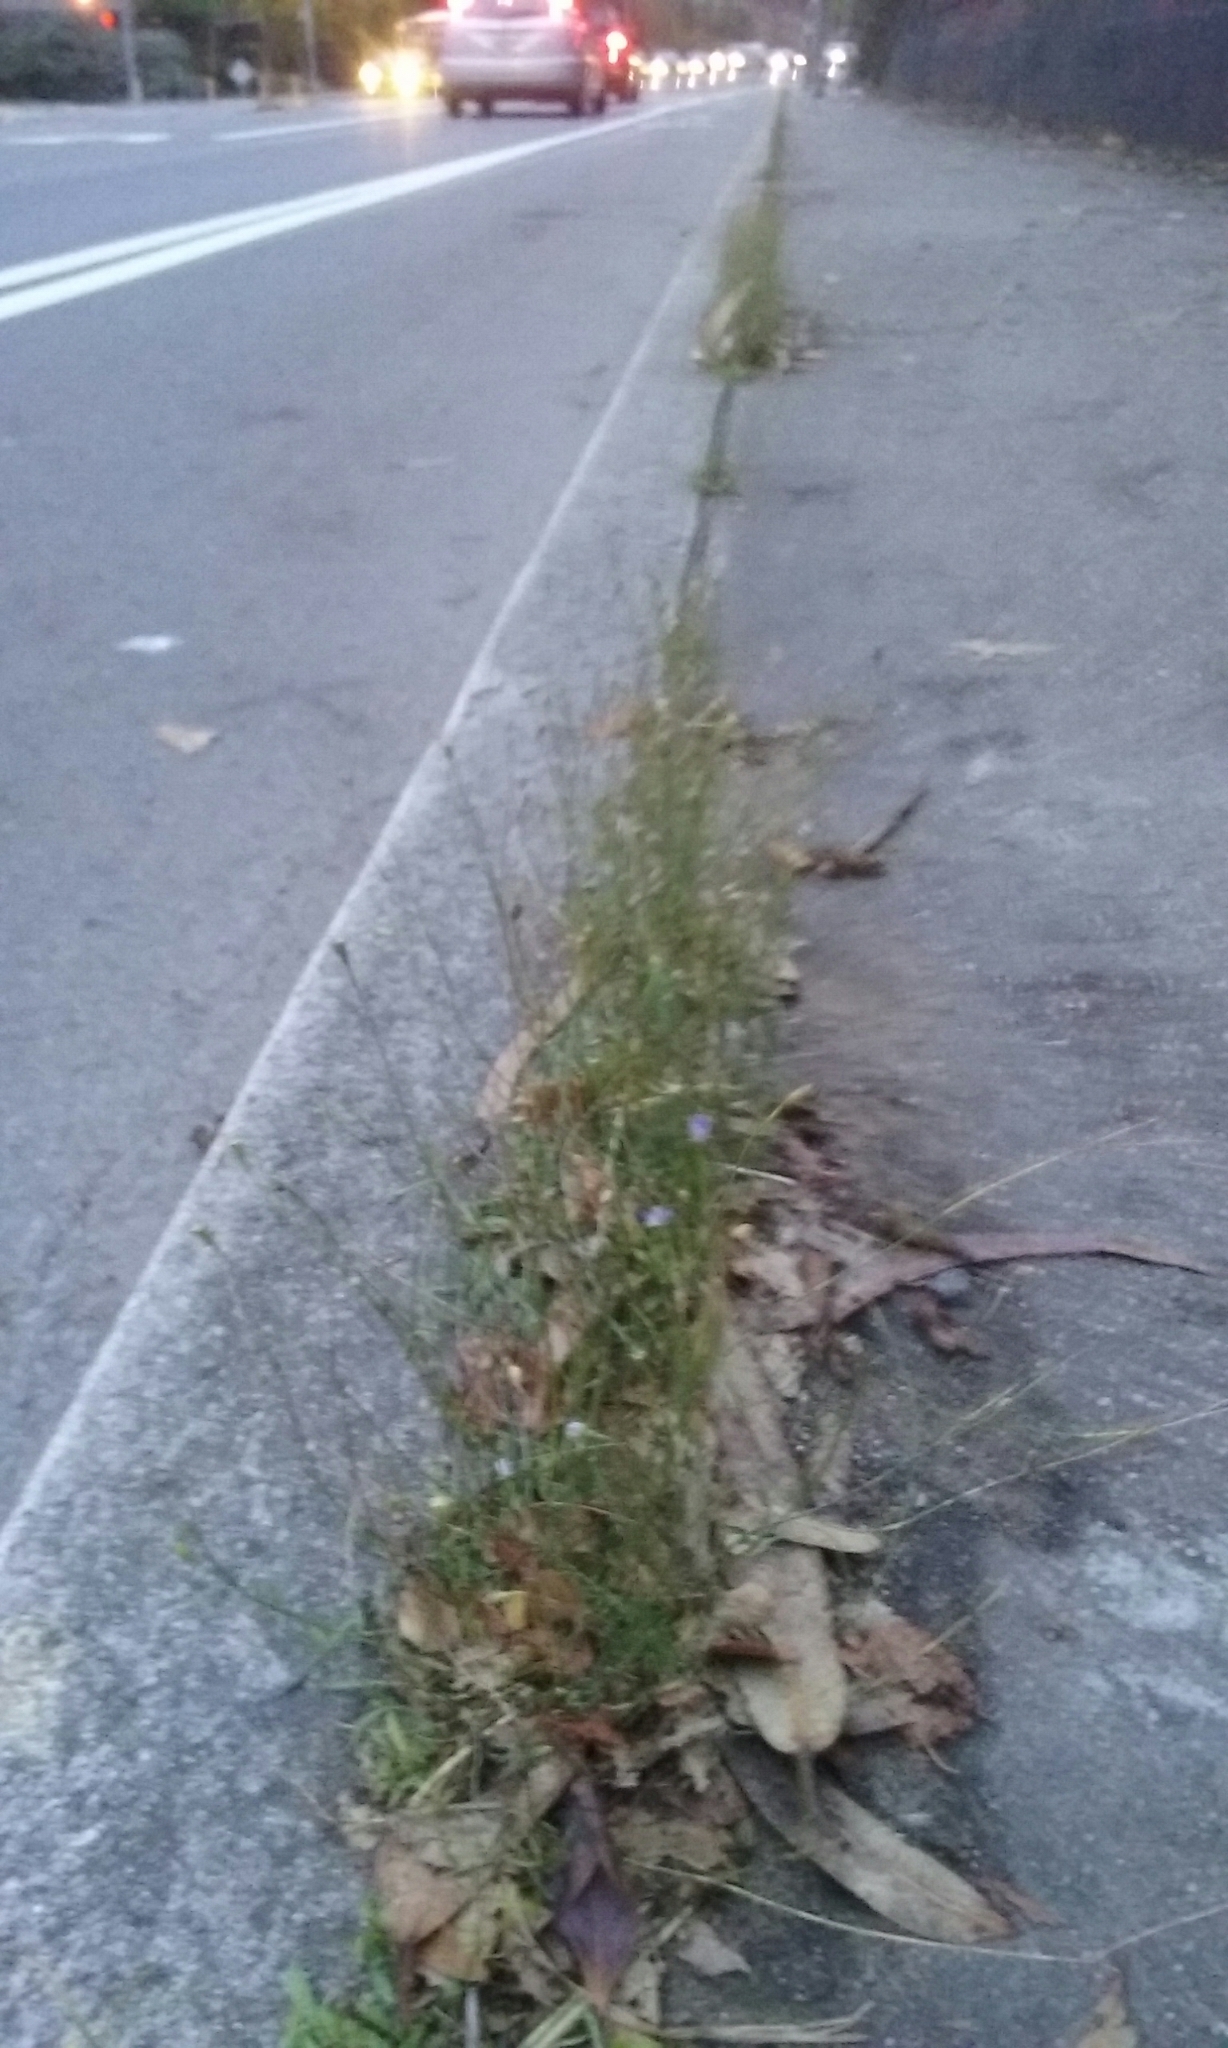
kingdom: Plantae
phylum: Tracheophyta
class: Magnoliopsida
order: Asterales
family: Campanulaceae
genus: Wahlenbergia
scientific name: Wahlenbergia marginata
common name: Southern rockbell
